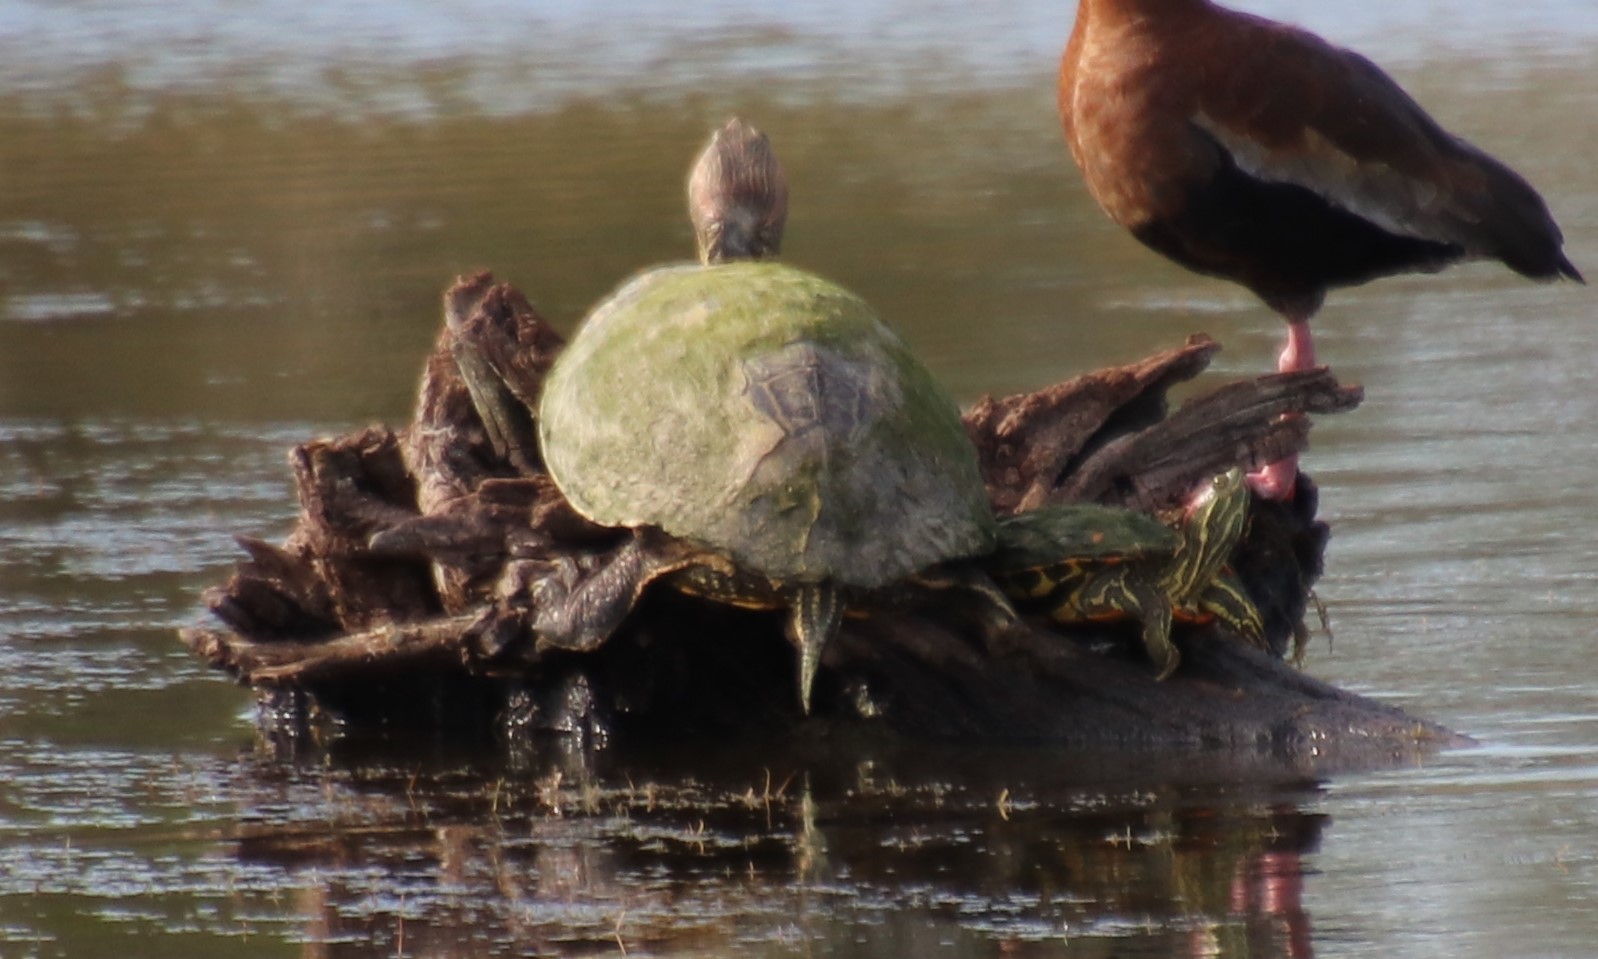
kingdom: Animalia
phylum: Chordata
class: Testudines
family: Emydidae
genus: Trachemys
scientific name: Trachemys scripta
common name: Slider
